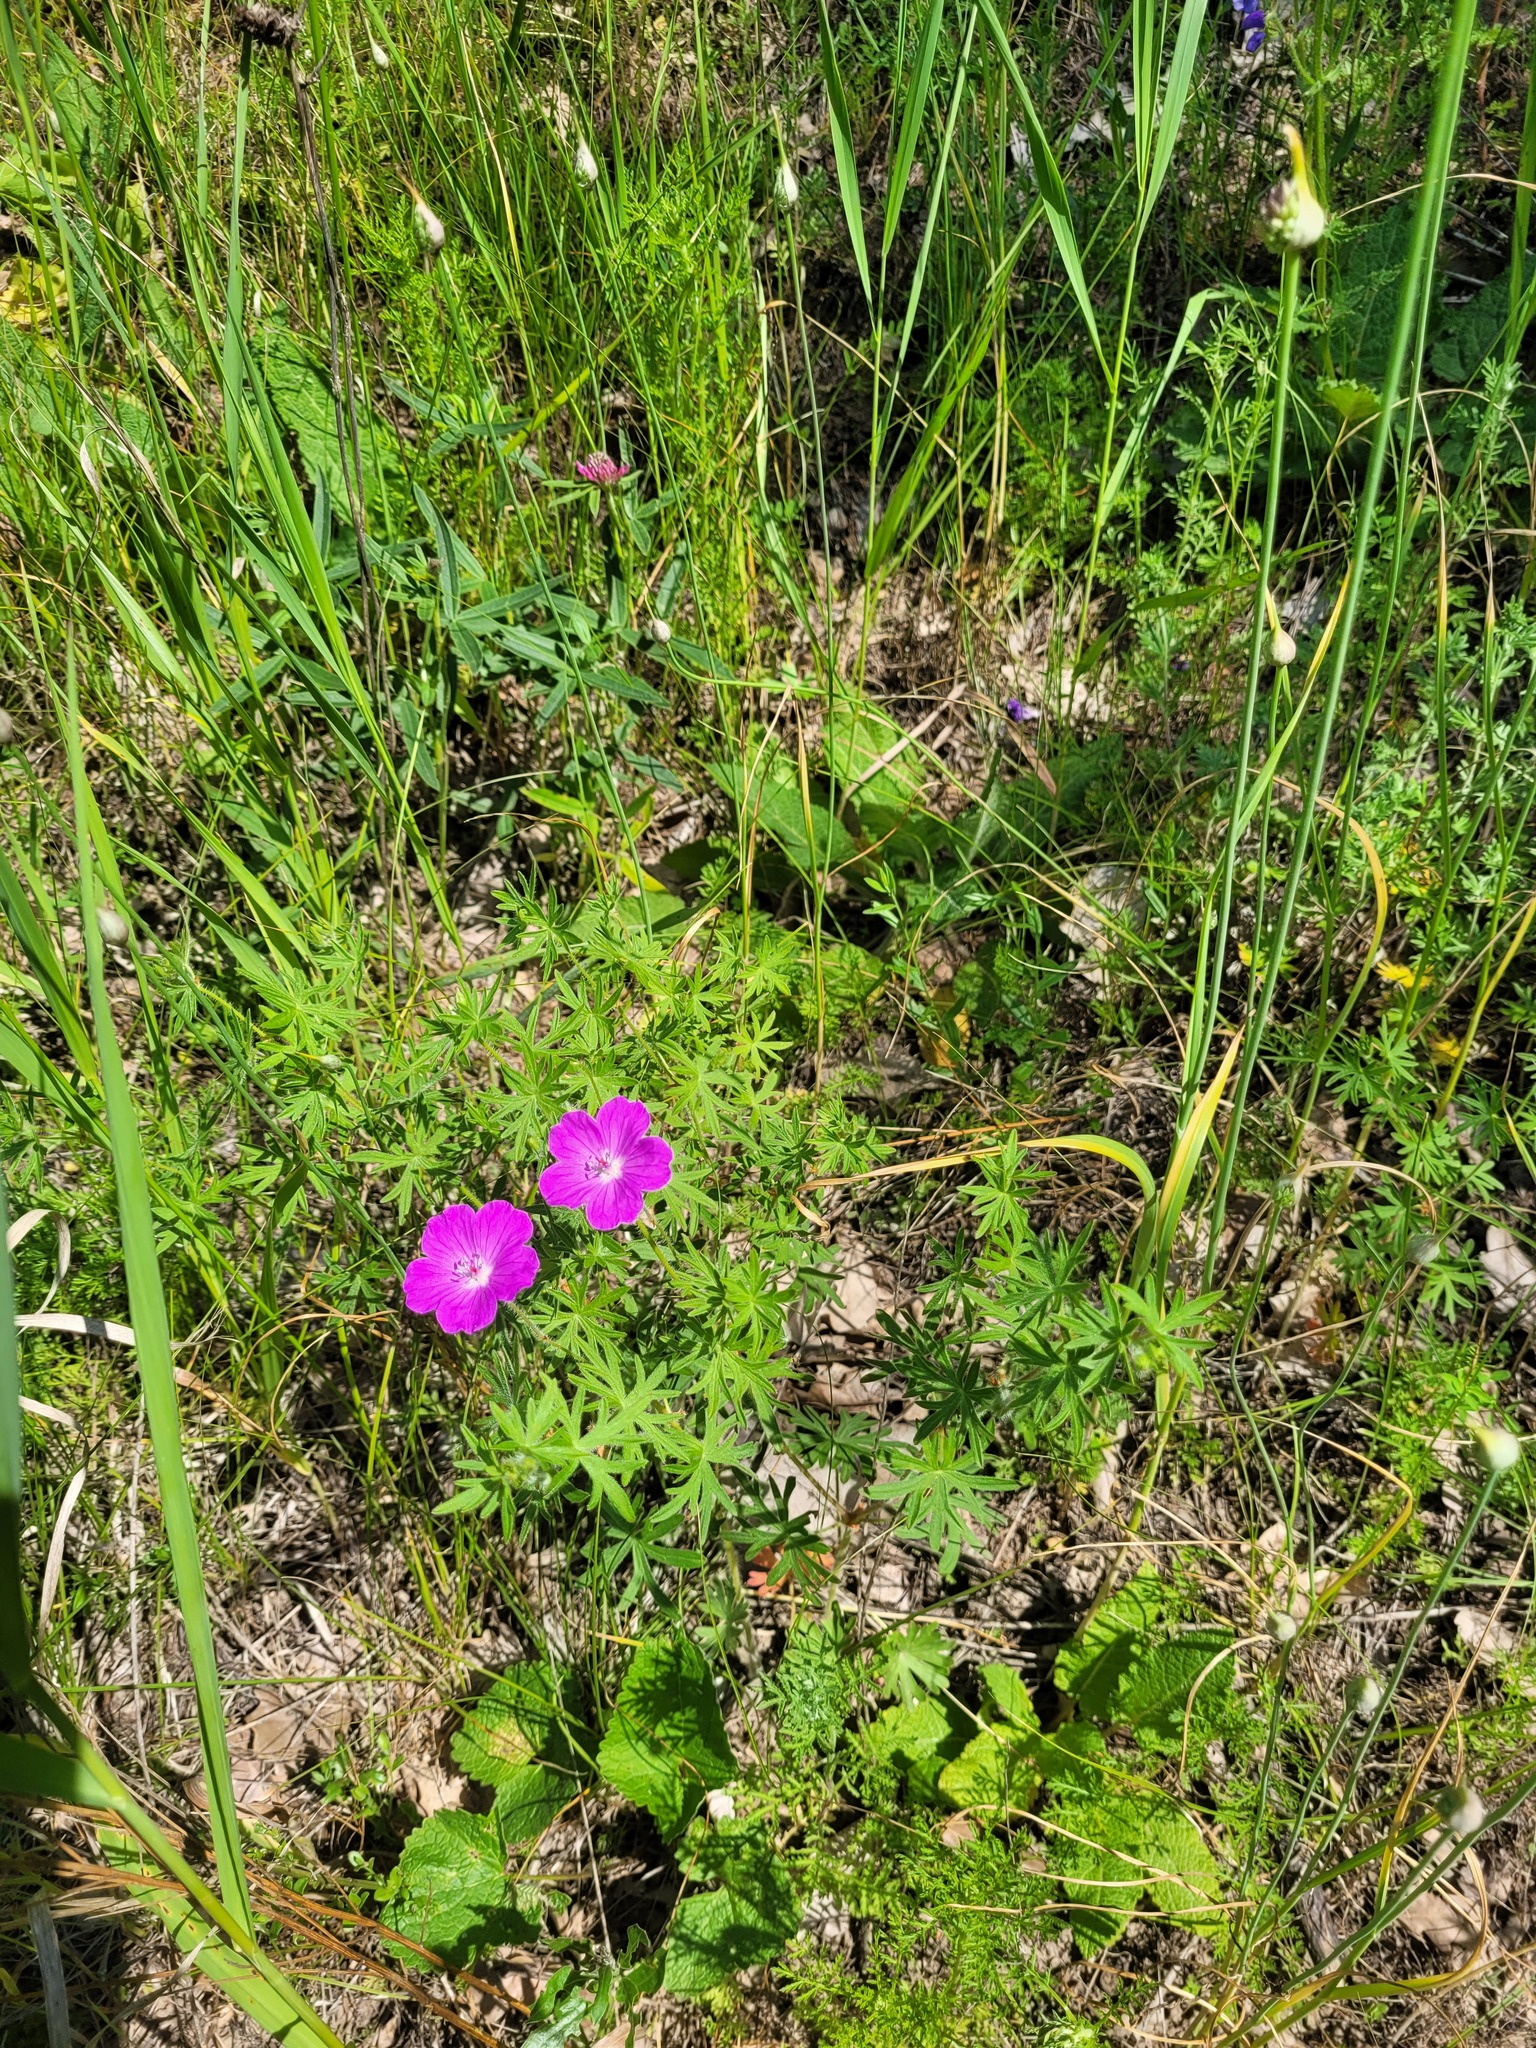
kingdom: Plantae
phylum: Tracheophyta
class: Magnoliopsida
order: Geraniales
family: Geraniaceae
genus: Geranium
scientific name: Geranium sanguineum
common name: Bloody crane's-bill
